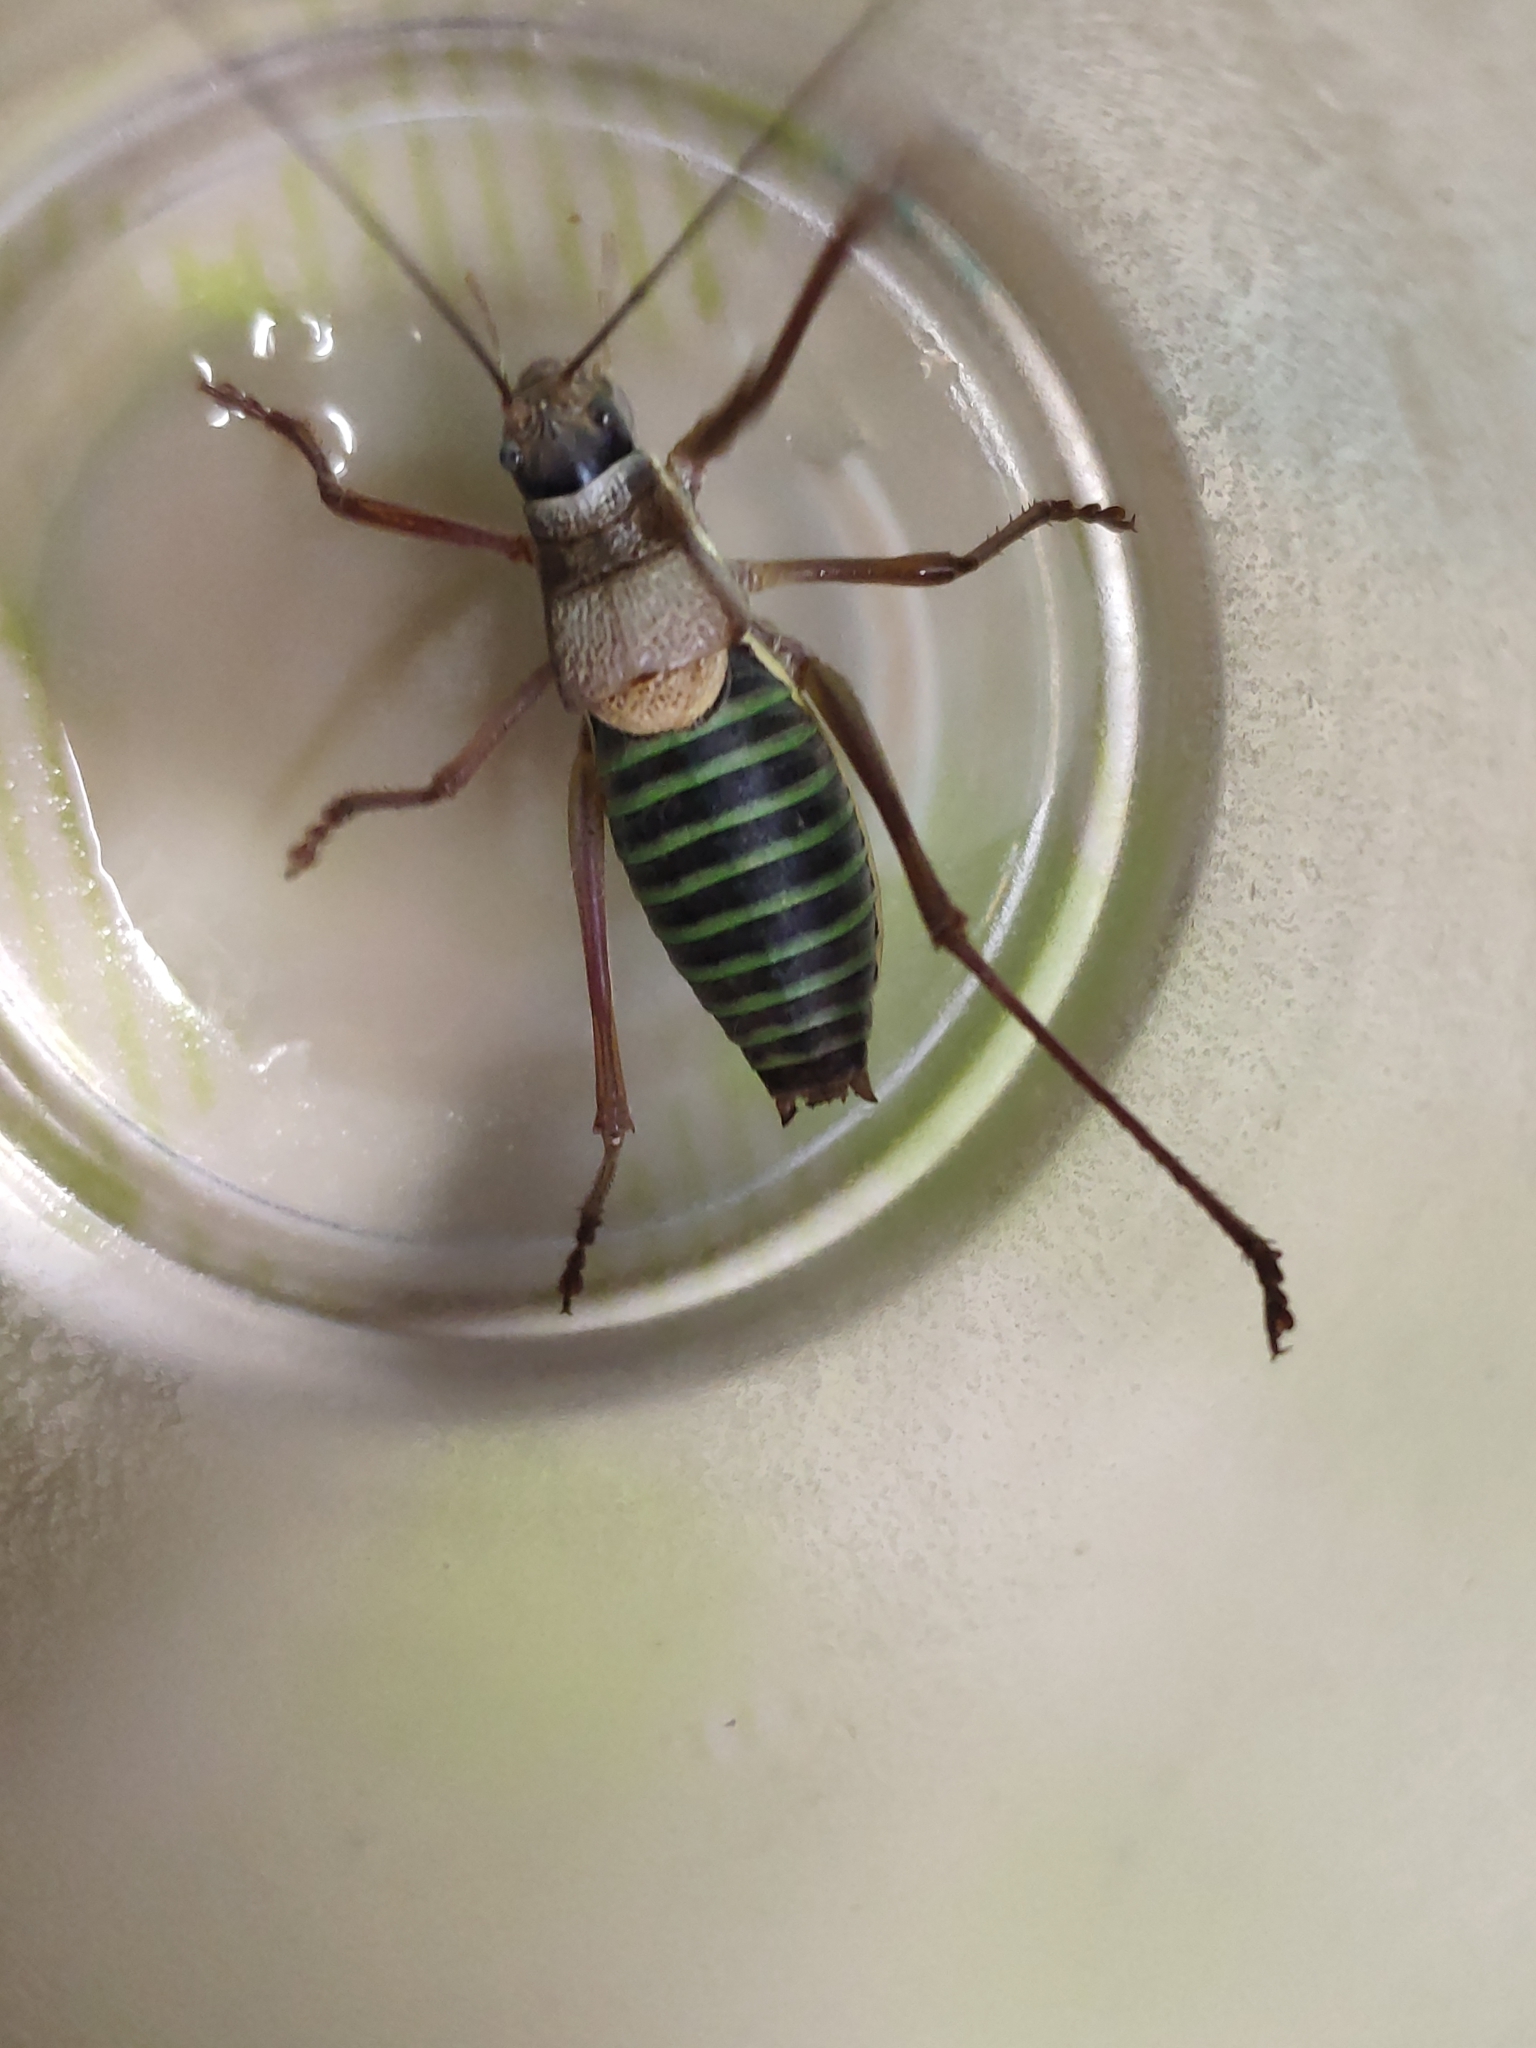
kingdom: Animalia
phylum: Arthropoda
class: Insecta
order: Orthoptera
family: Tettigoniidae
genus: Ephippiger
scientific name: Ephippiger diurnus
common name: Western saddle bush-cricket
